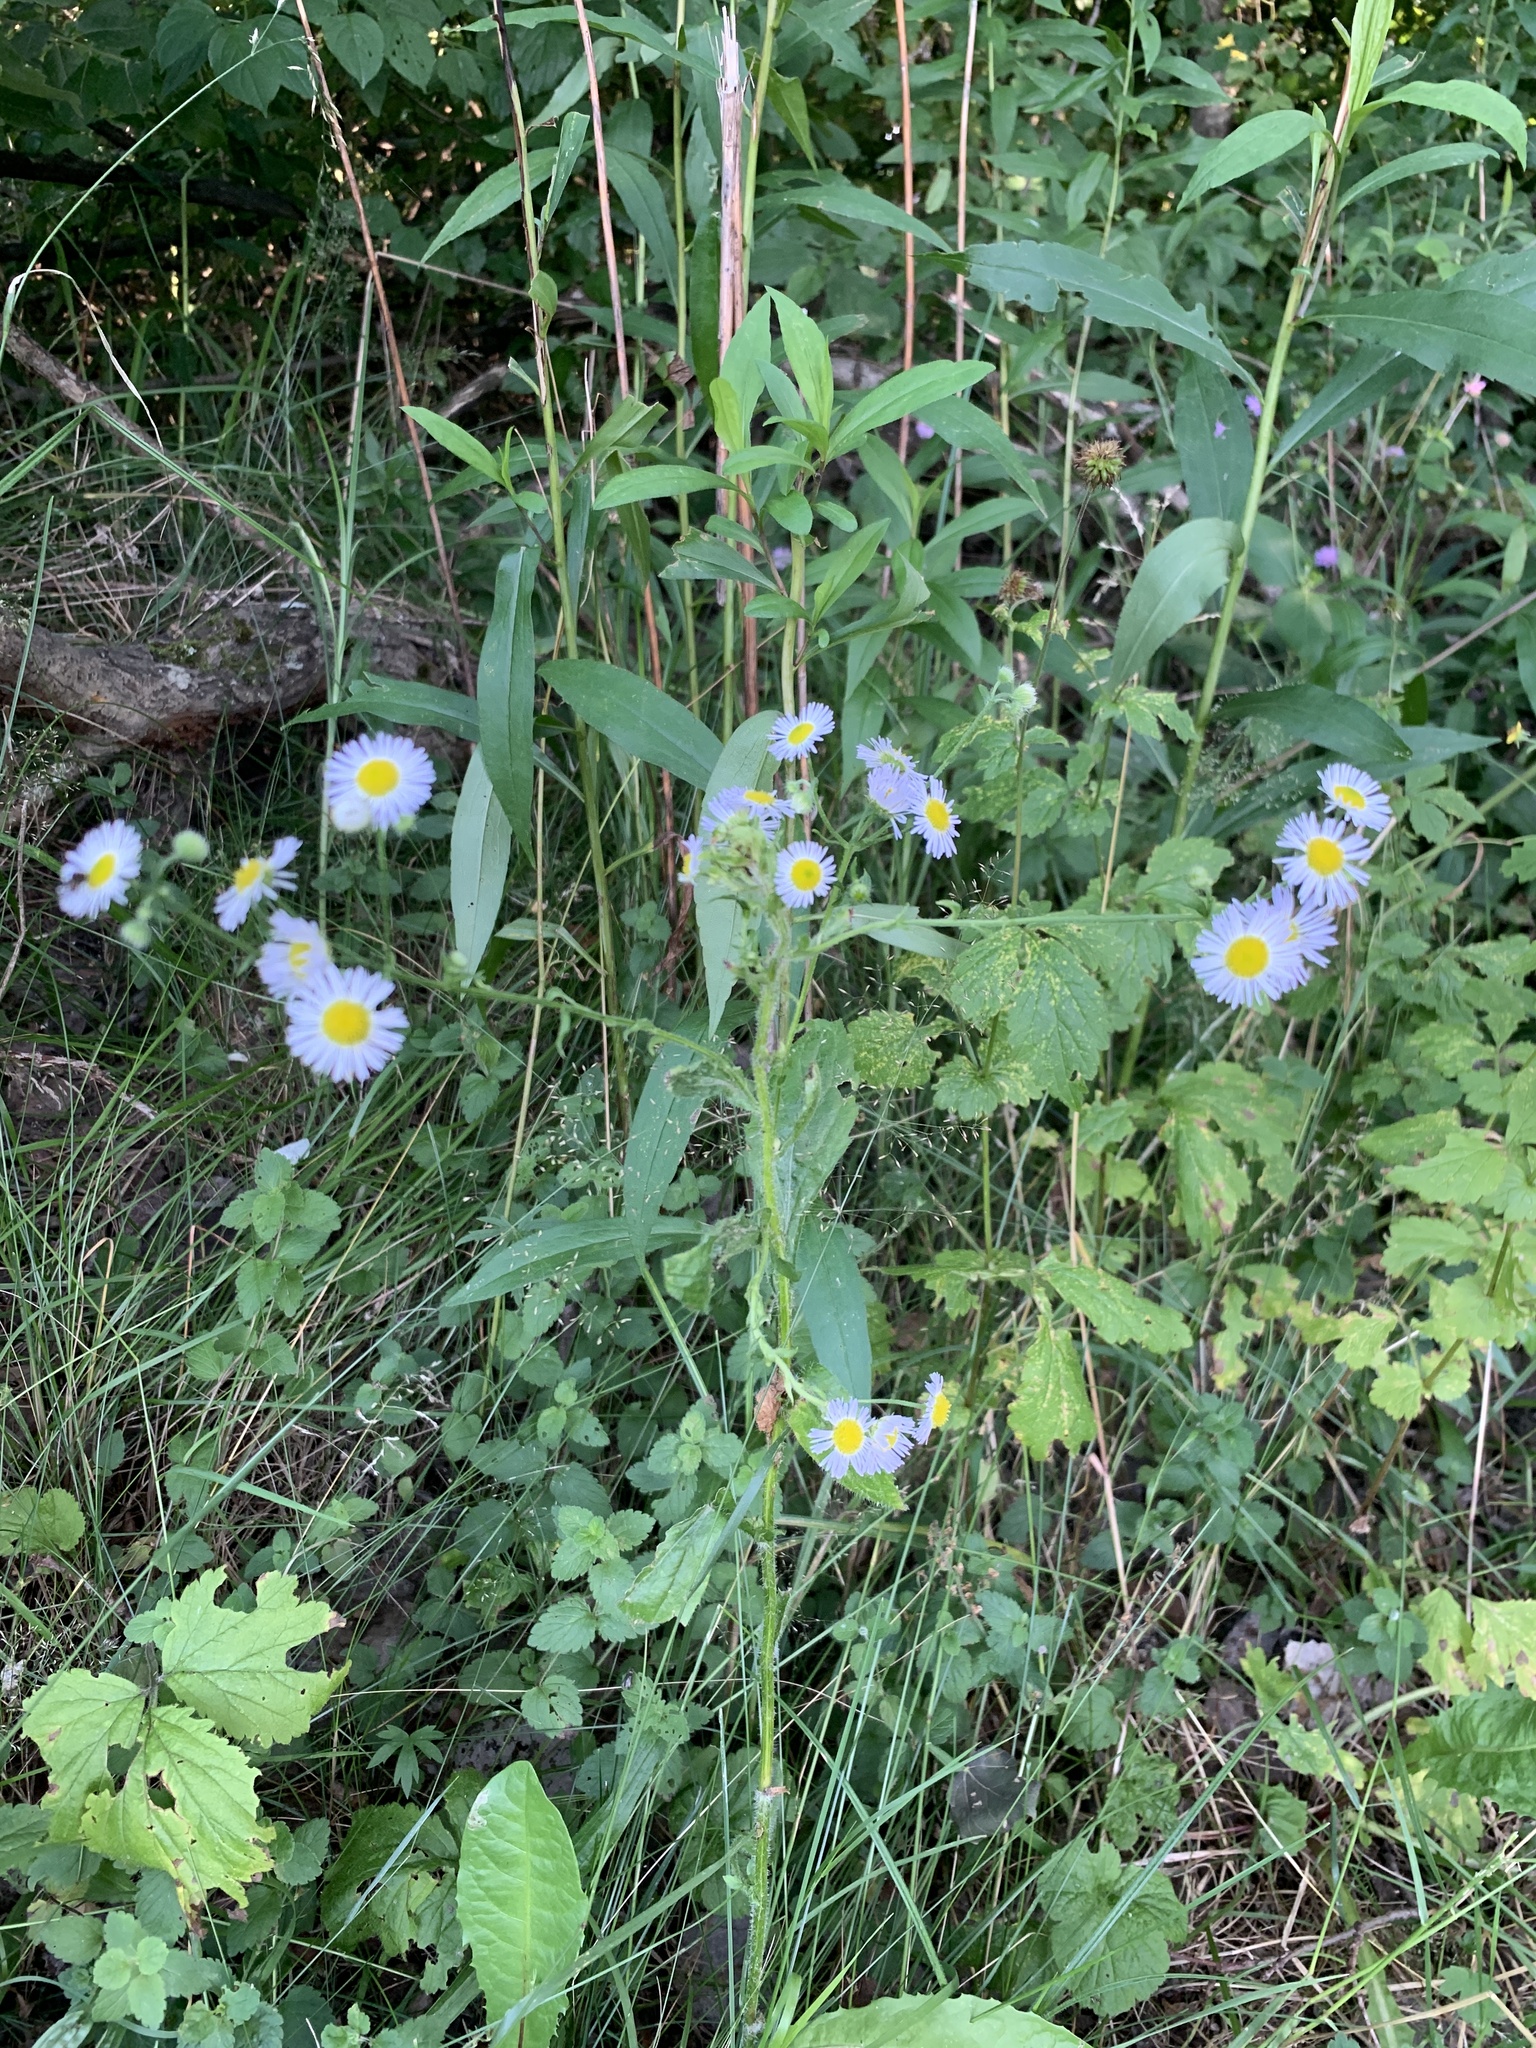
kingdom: Plantae
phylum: Tracheophyta
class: Magnoliopsida
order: Asterales
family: Asteraceae
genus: Erigeron
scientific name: Erigeron annuus
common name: Tall fleabane
